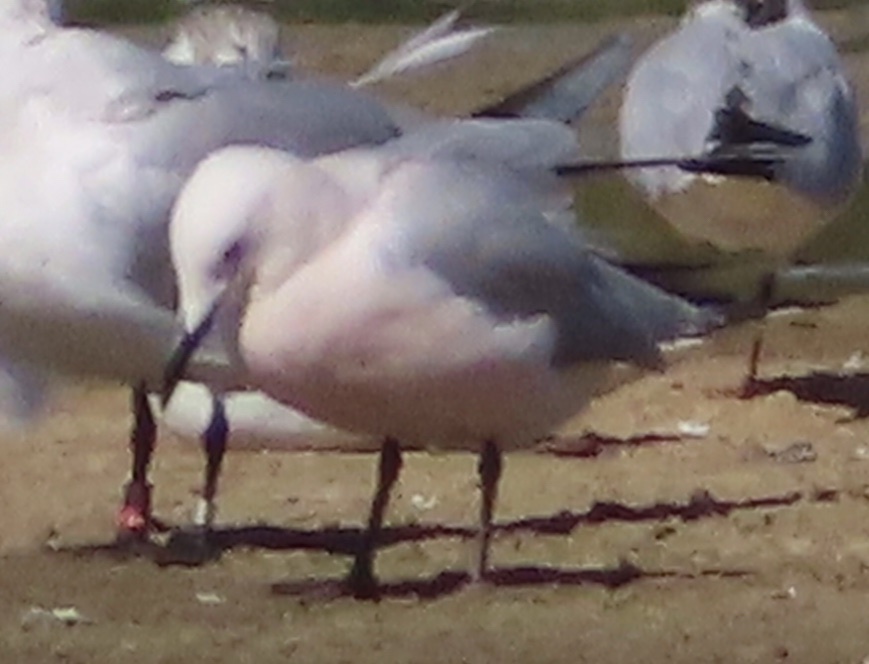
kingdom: Animalia
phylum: Chordata
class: Aves
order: Charadriiformes
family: Laridae
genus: Chroicocephalus
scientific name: Chroicocephalus genei
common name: Slender-billed gull
